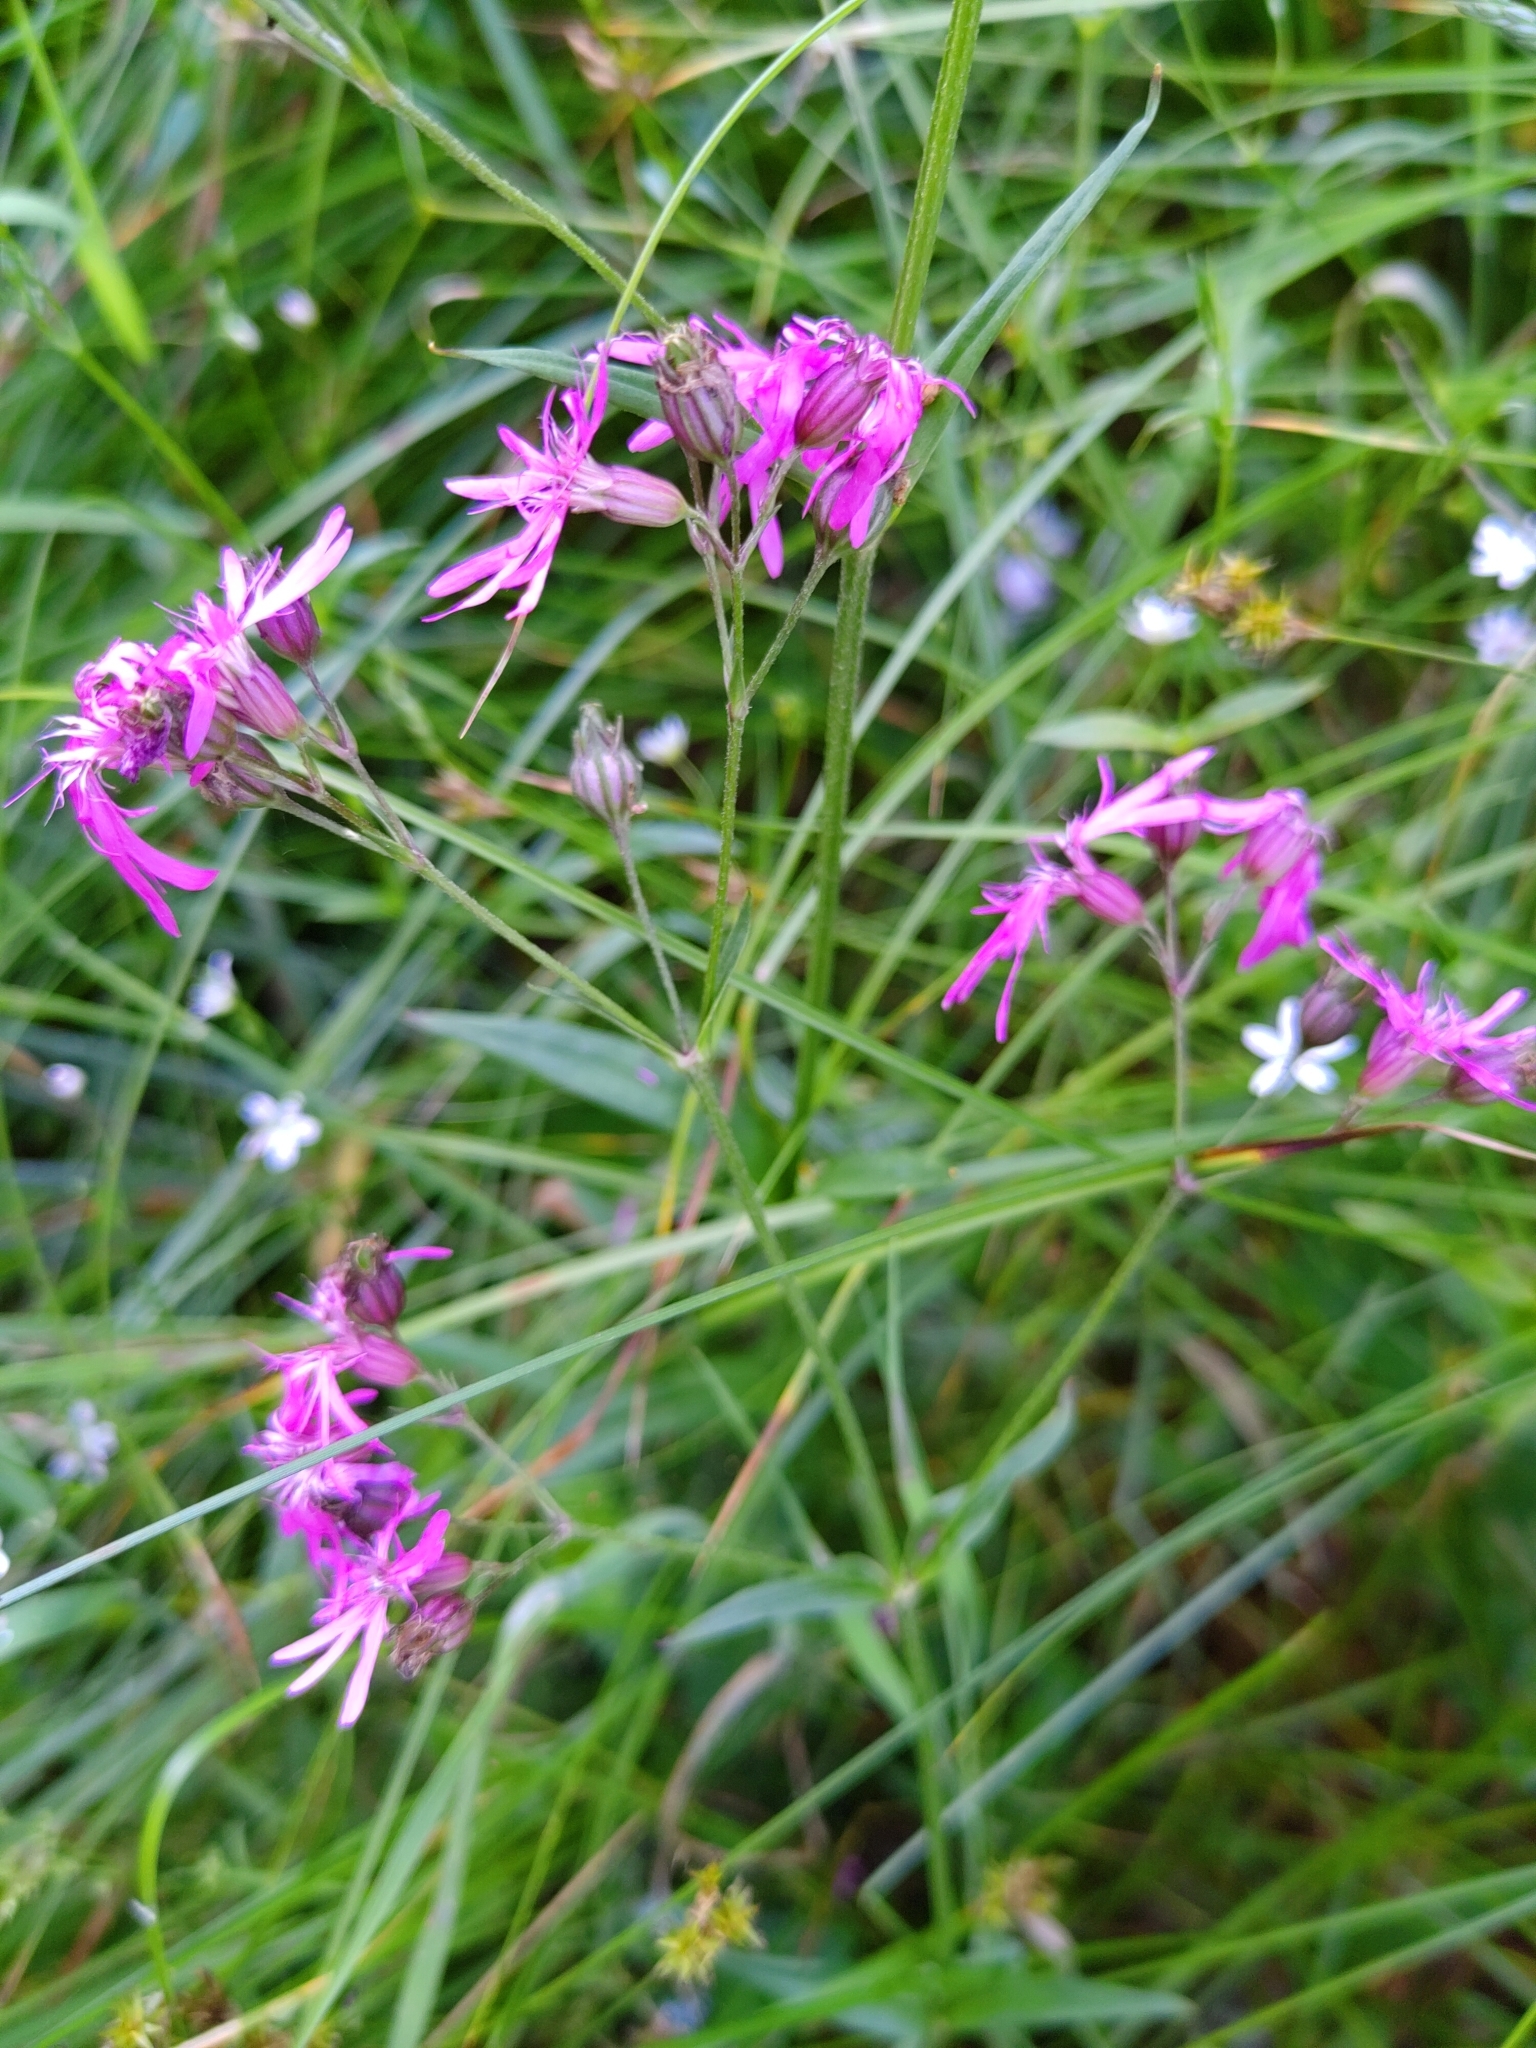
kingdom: Plantae
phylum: Tracheophyta
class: Magnoliopsida
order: Caryophyllales
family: Caryophyllaceae
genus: Silene
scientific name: Silene flos-cuculi
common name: Ragged-robin
